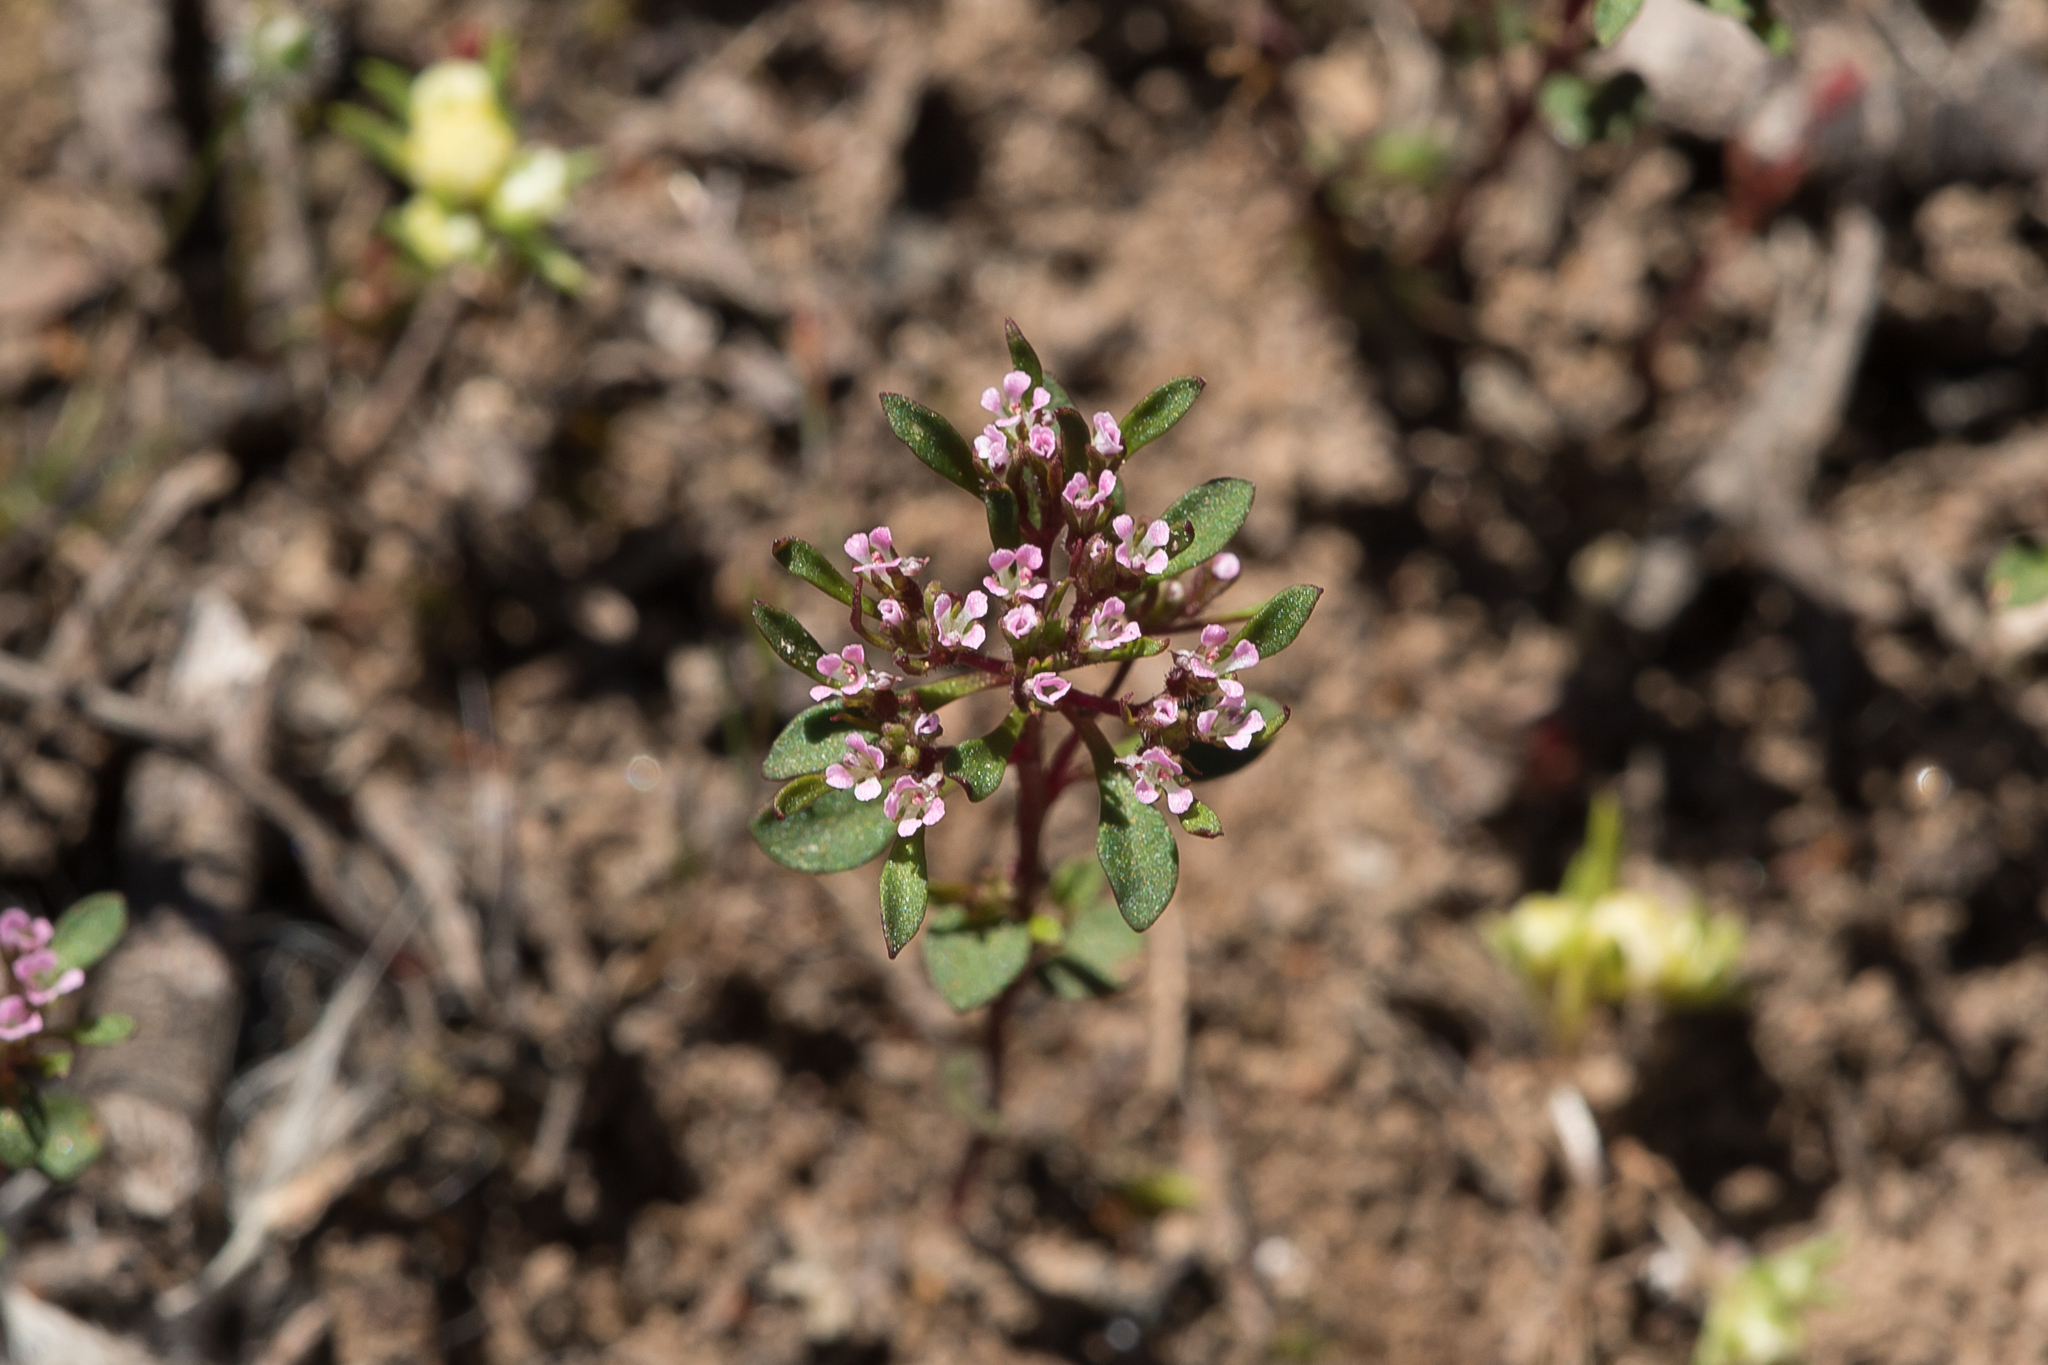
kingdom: Plantae
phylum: Tracheophyta
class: Magnoliopsida
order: Asterales
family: Stylidiaceae
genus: Levenhookia
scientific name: Levenhookia pusilla
